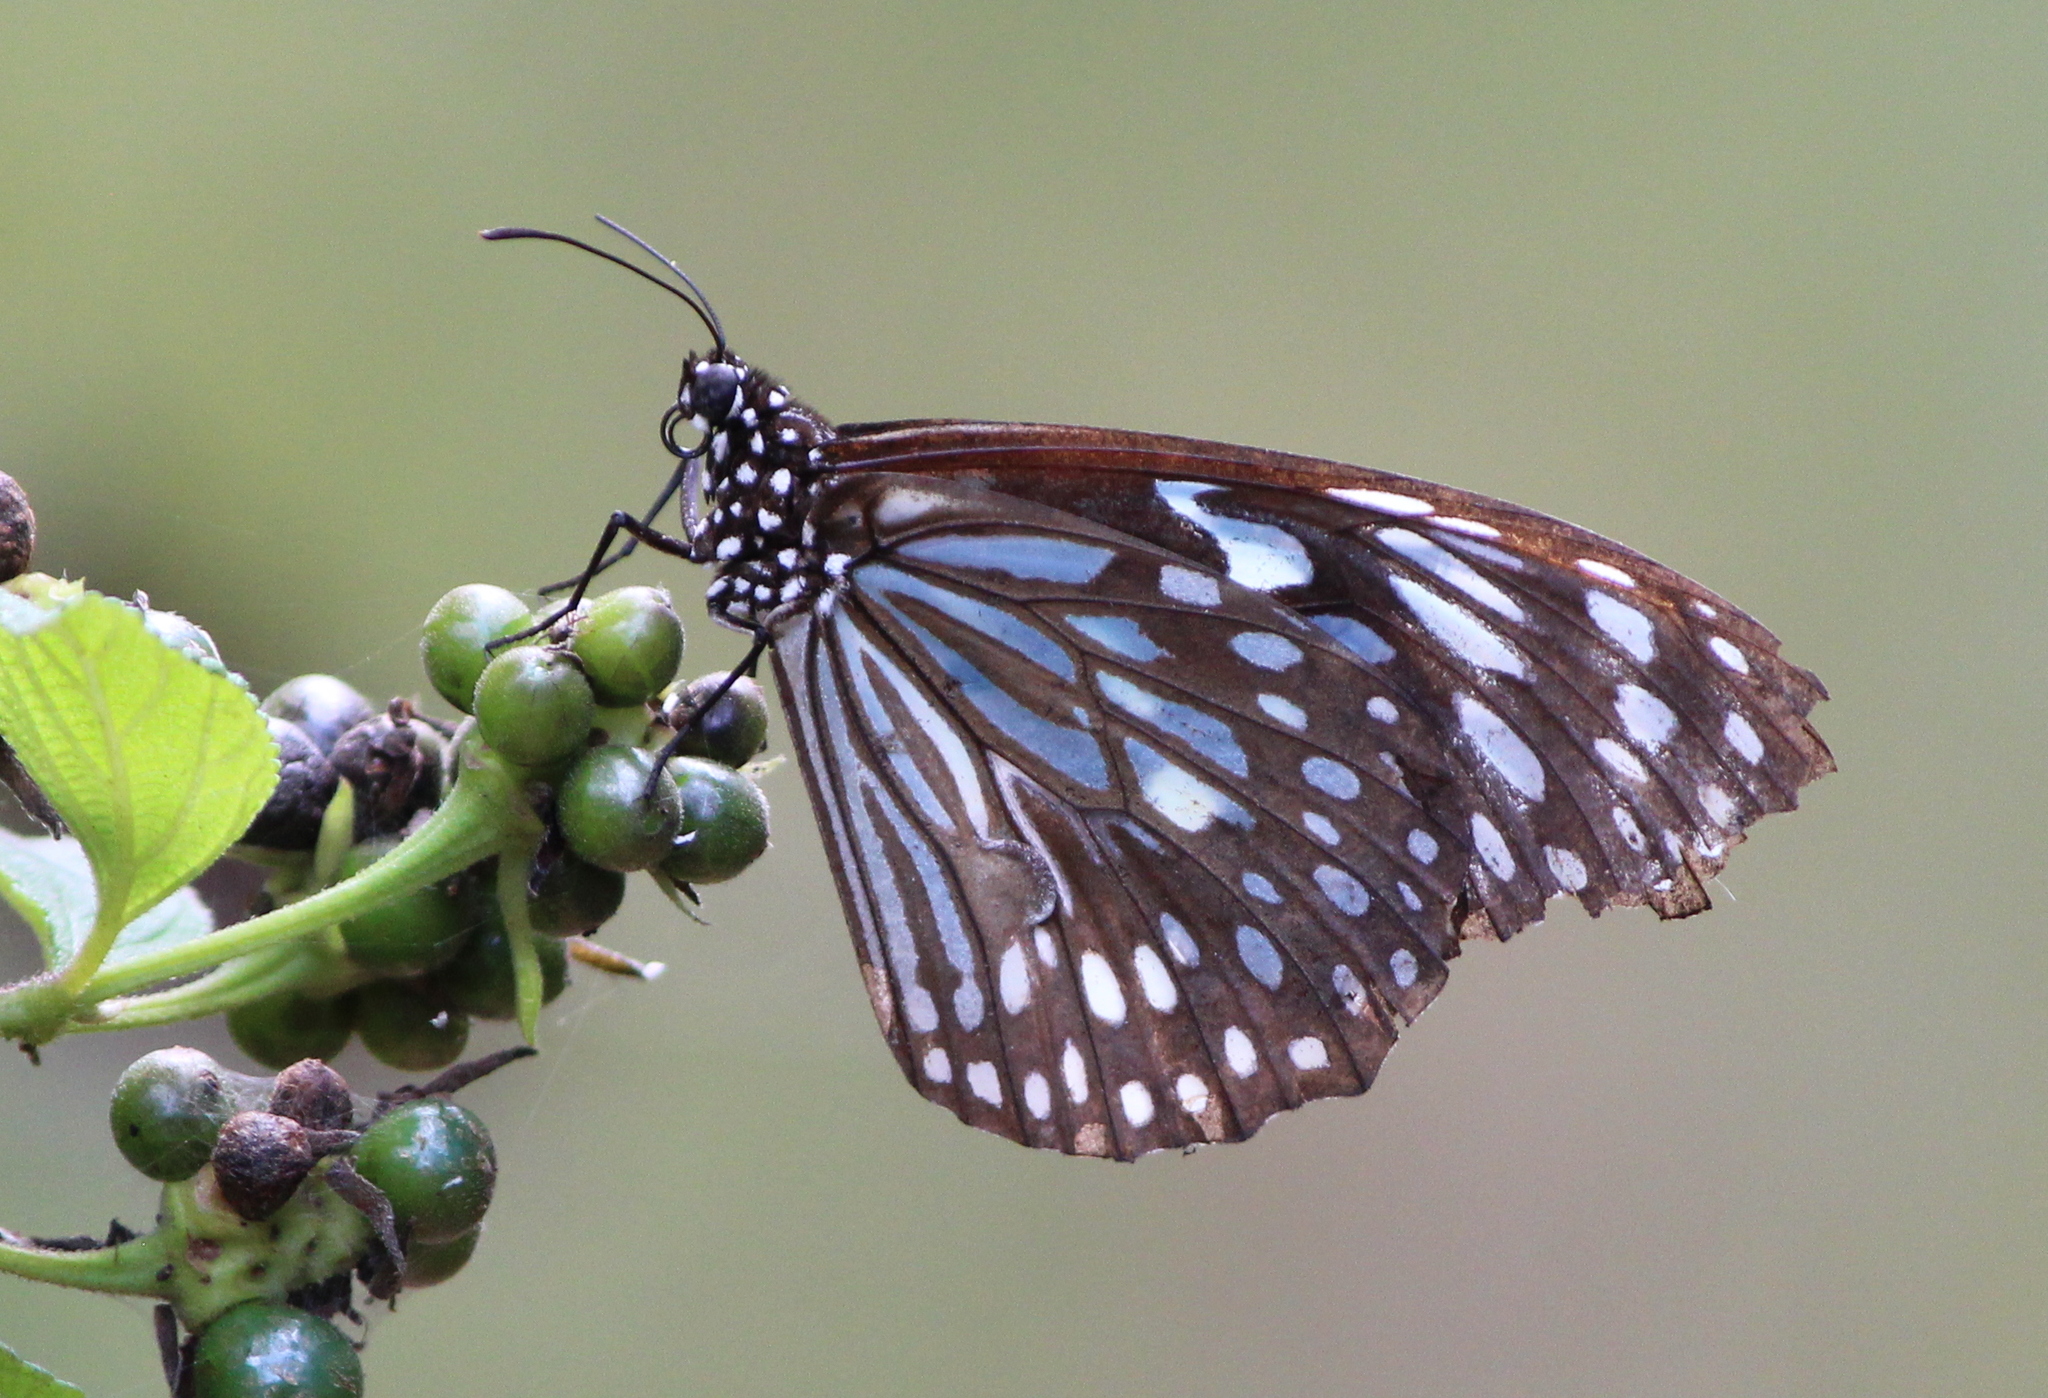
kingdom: Animalia
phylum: Arthropoda
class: Insecta
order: Lepidoptera
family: Nymphalidae
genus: Tirumala
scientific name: Tirumala septentrionis
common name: Dark blue tiger butterfly
